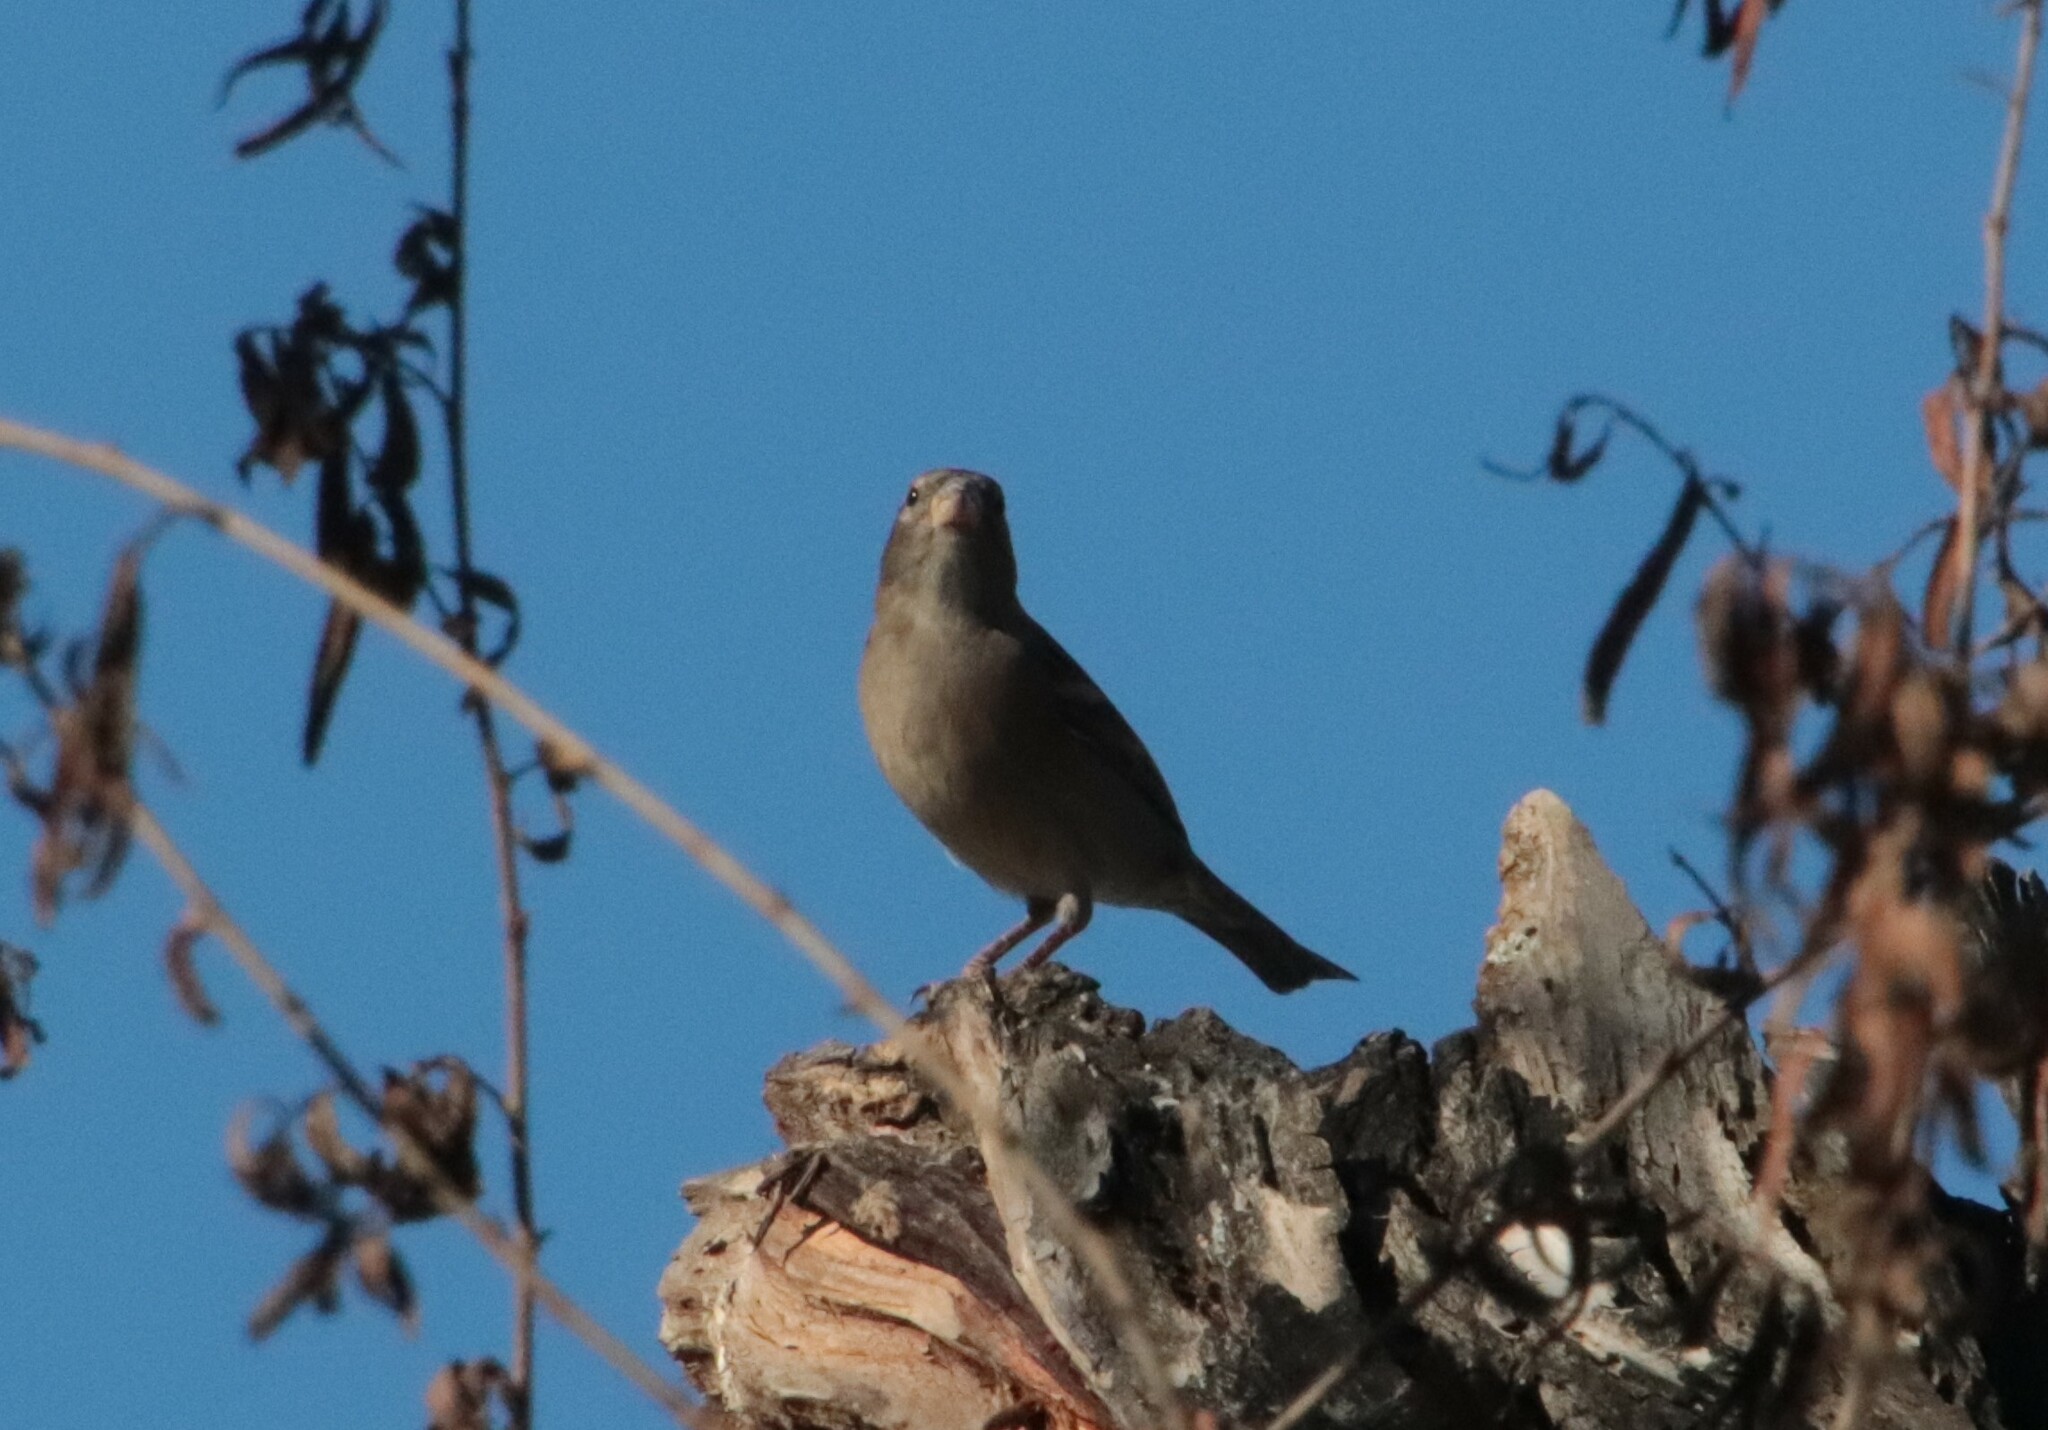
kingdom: Animalia
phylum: Chordata
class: Aves
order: Passeriformes
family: Passeridae
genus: Passer
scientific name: Passer domesticus
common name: House sparrow
